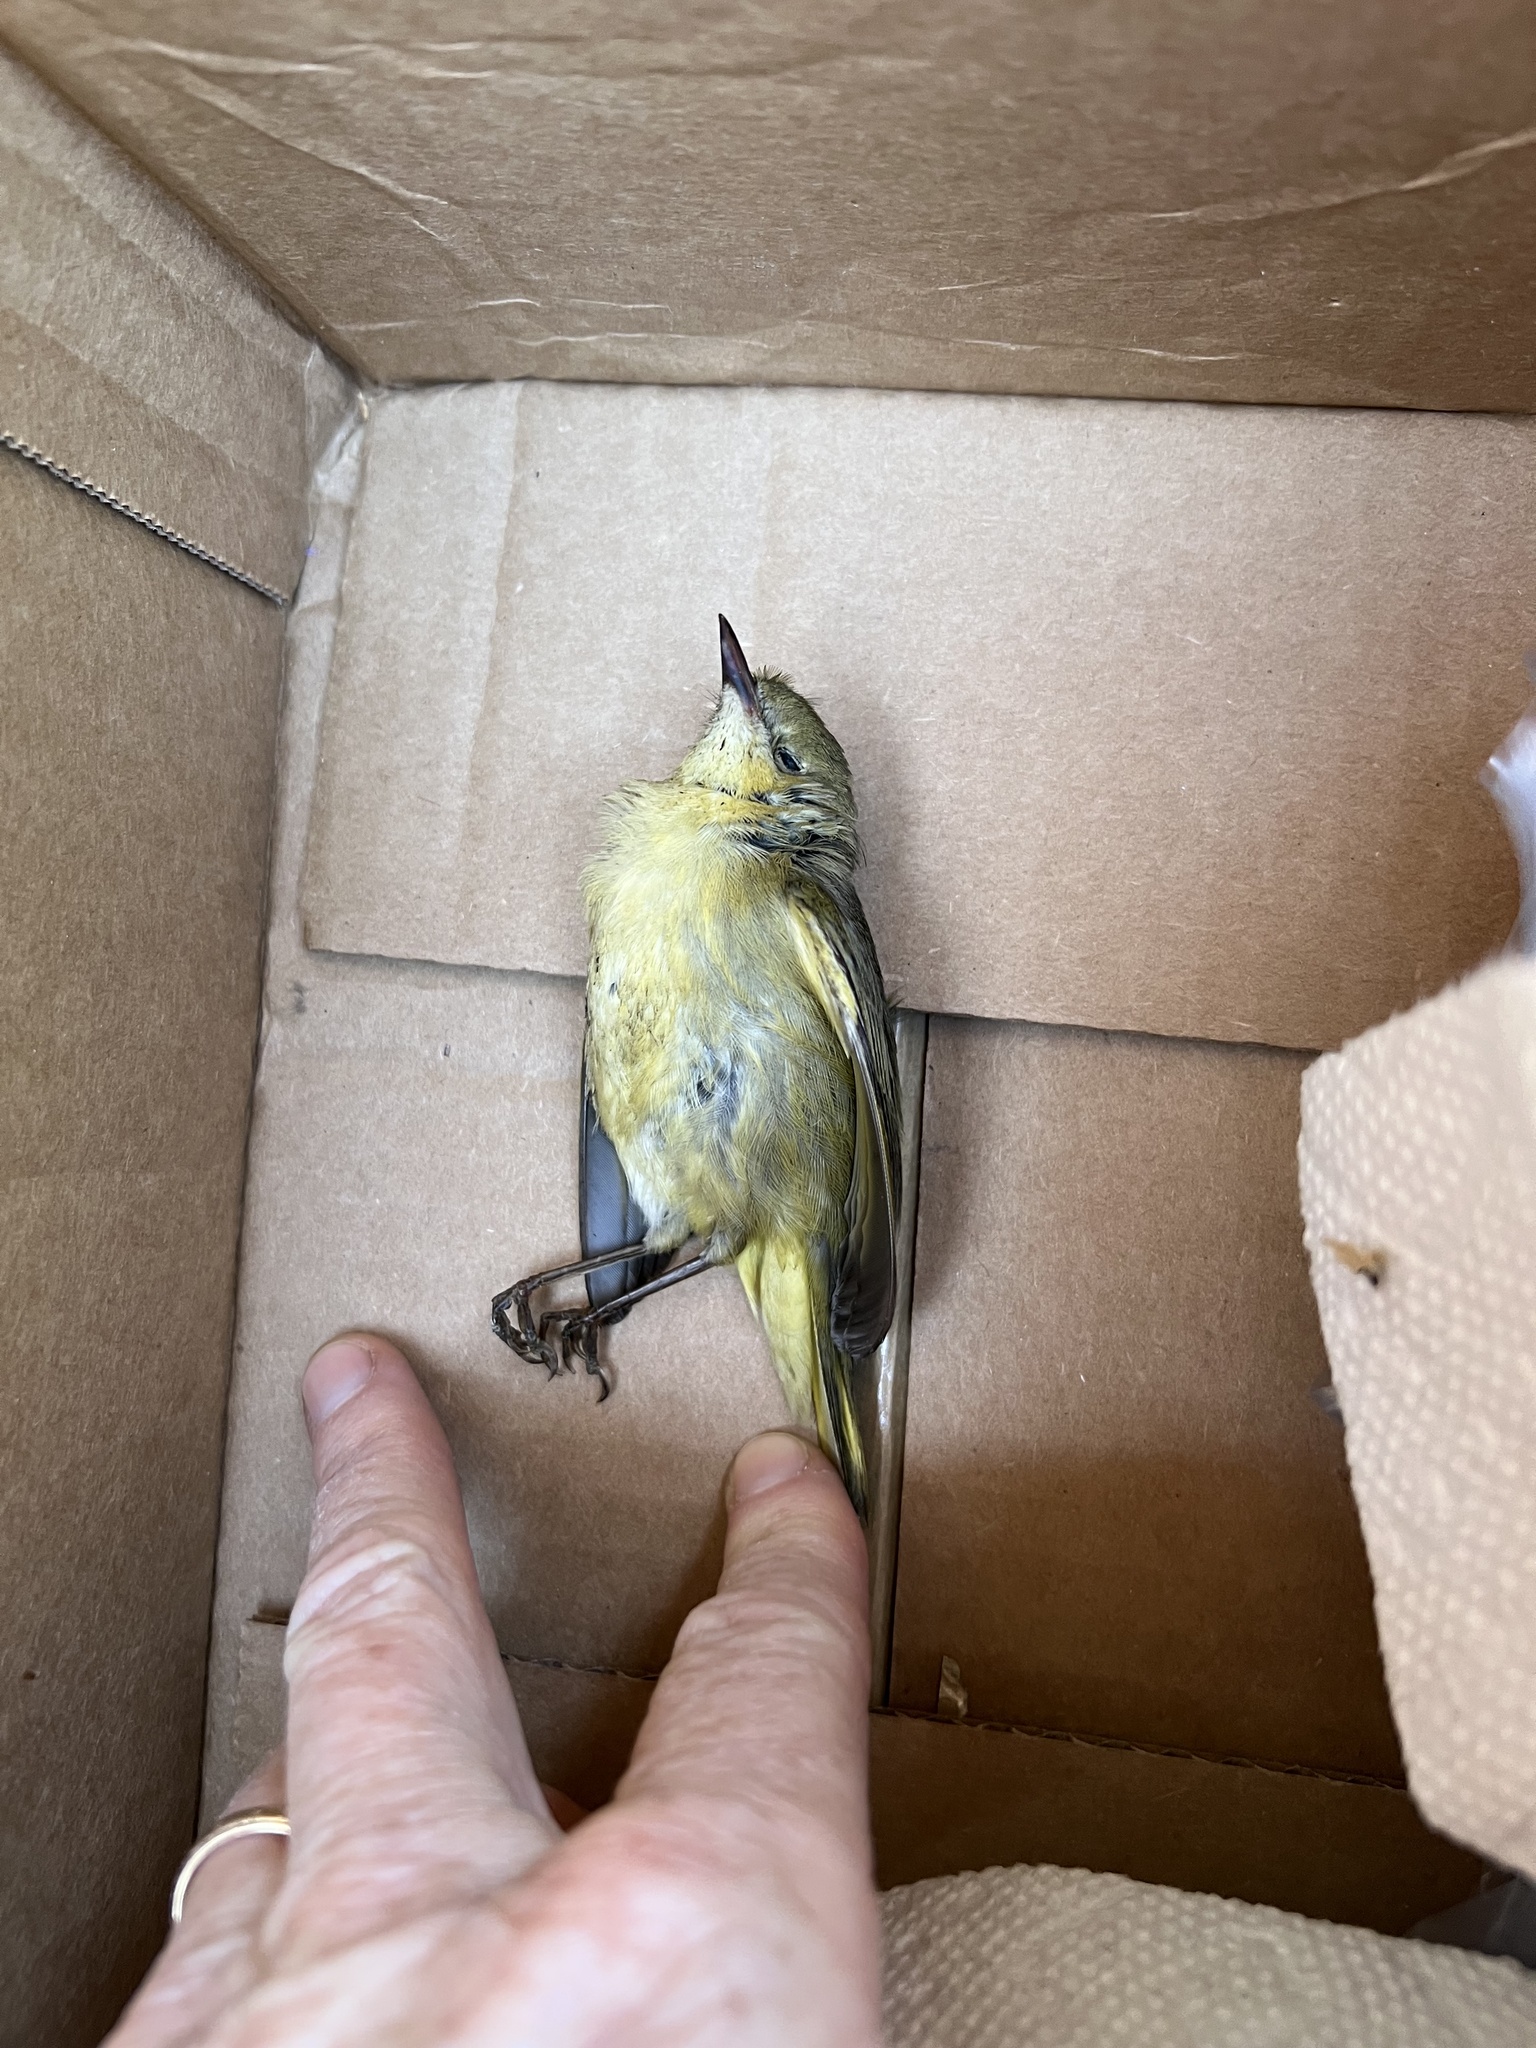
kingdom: Animalia
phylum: Chordata
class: Aves
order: Passeriformes
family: Parulidae
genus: Setophaga
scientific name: Setophaga petechia
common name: Yellow warbler
